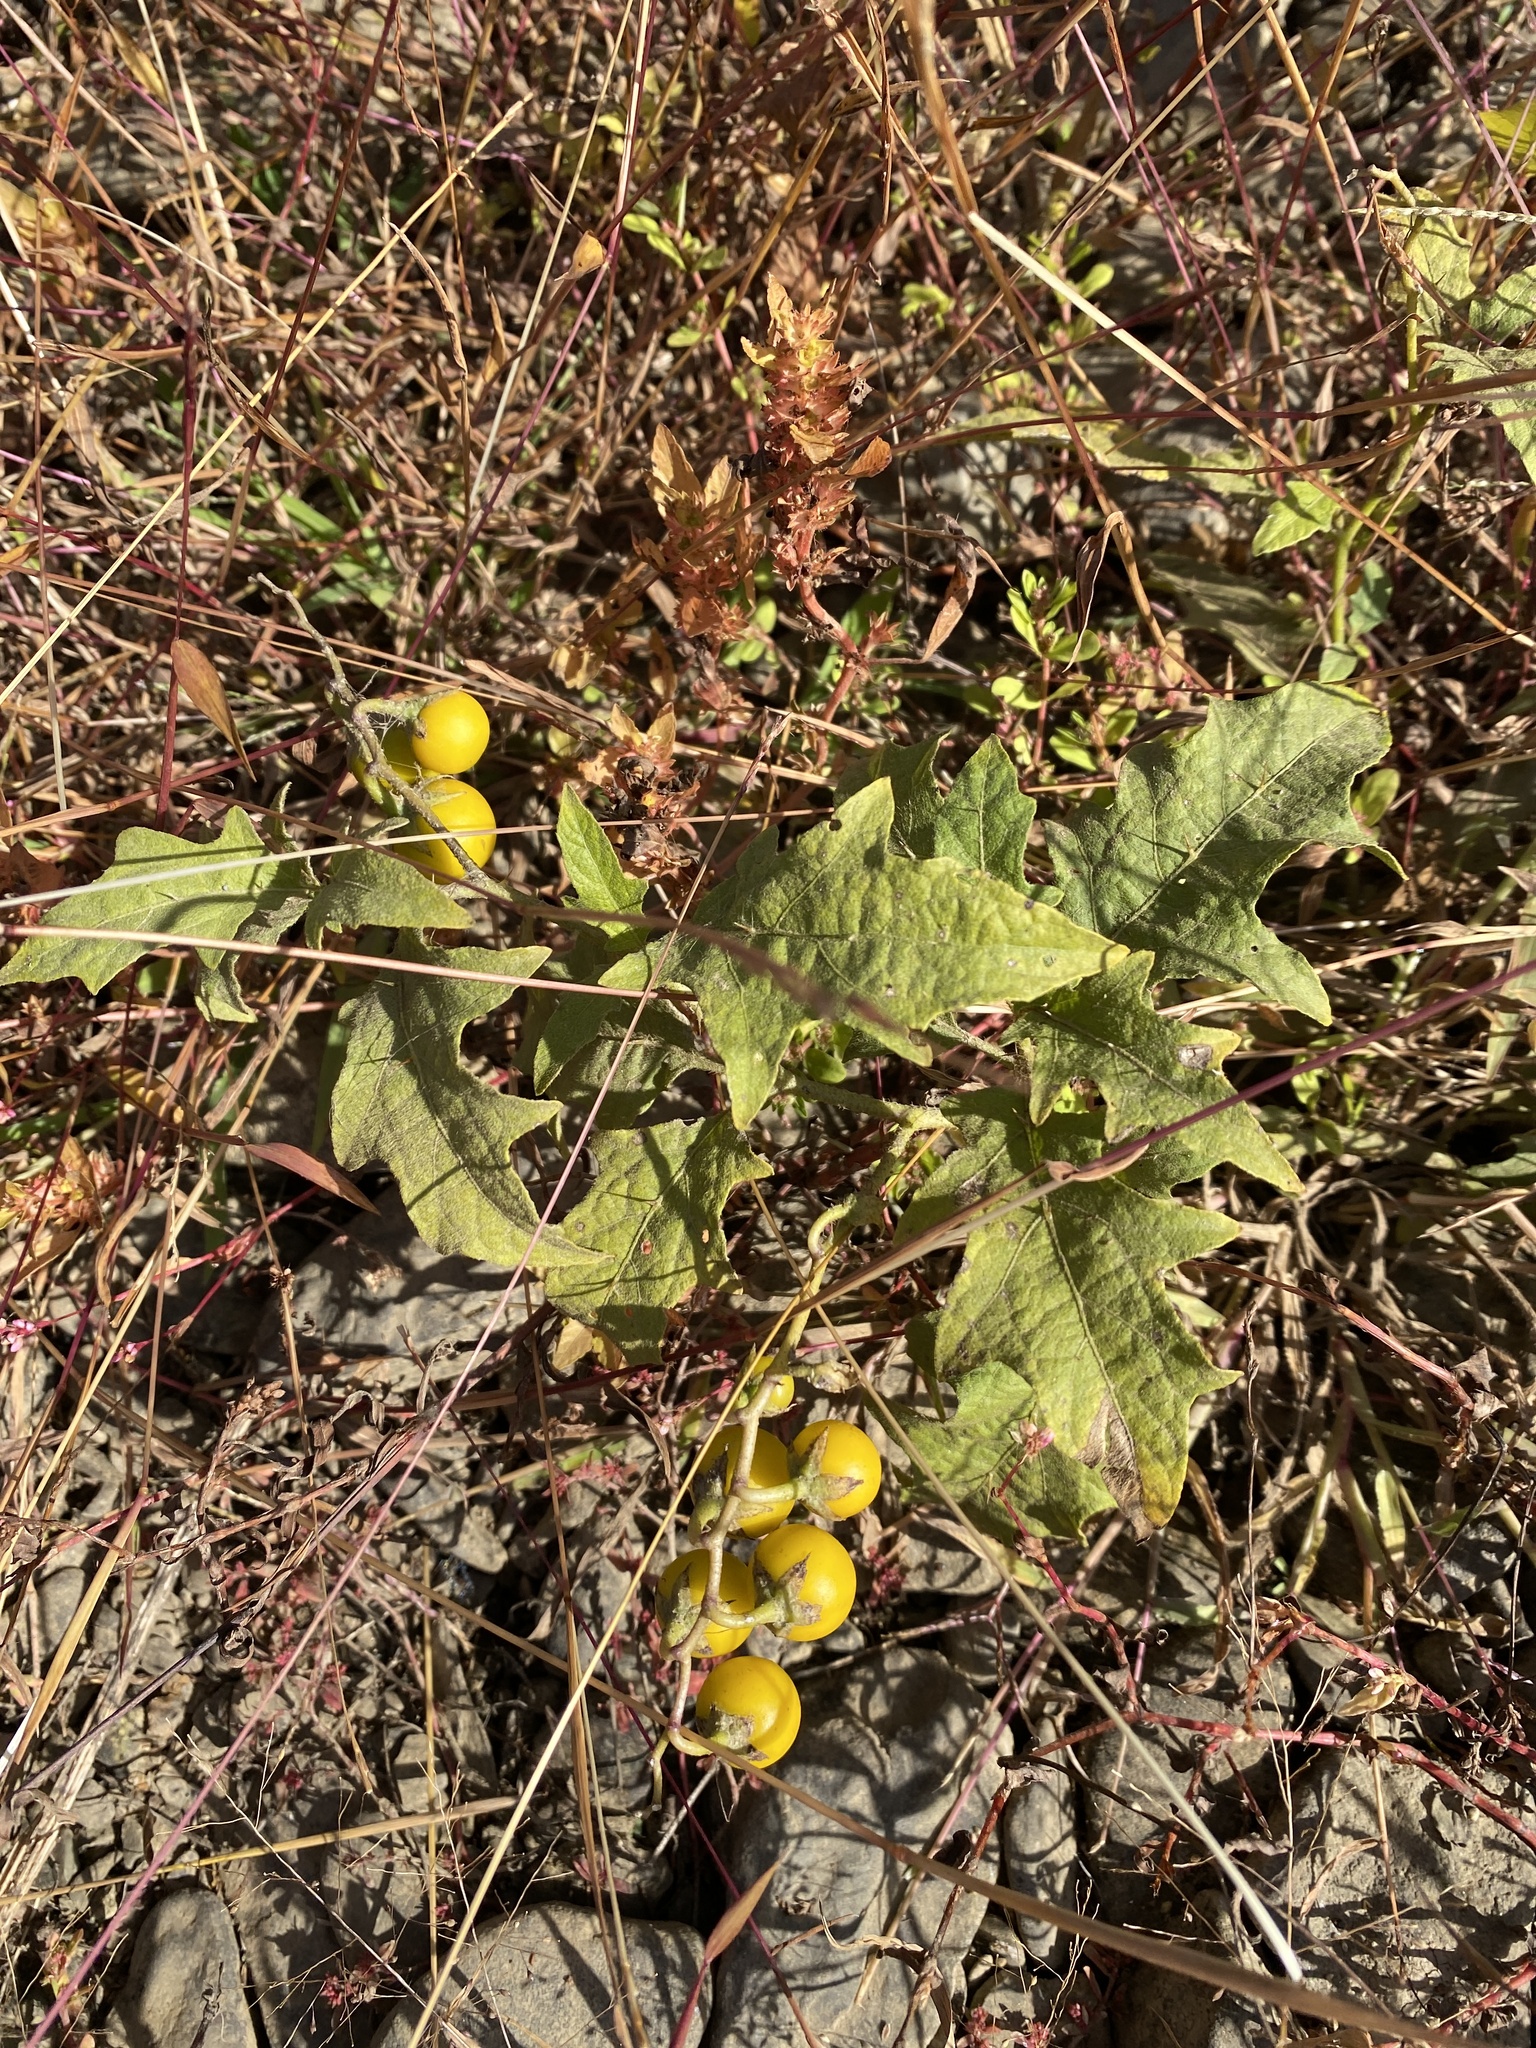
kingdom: Plantae
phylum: Tracheophyta
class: Magnoliopsida
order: Solanales
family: Solanaceae
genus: Solanum
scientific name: Solanum carolinense
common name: Horse-nettle
